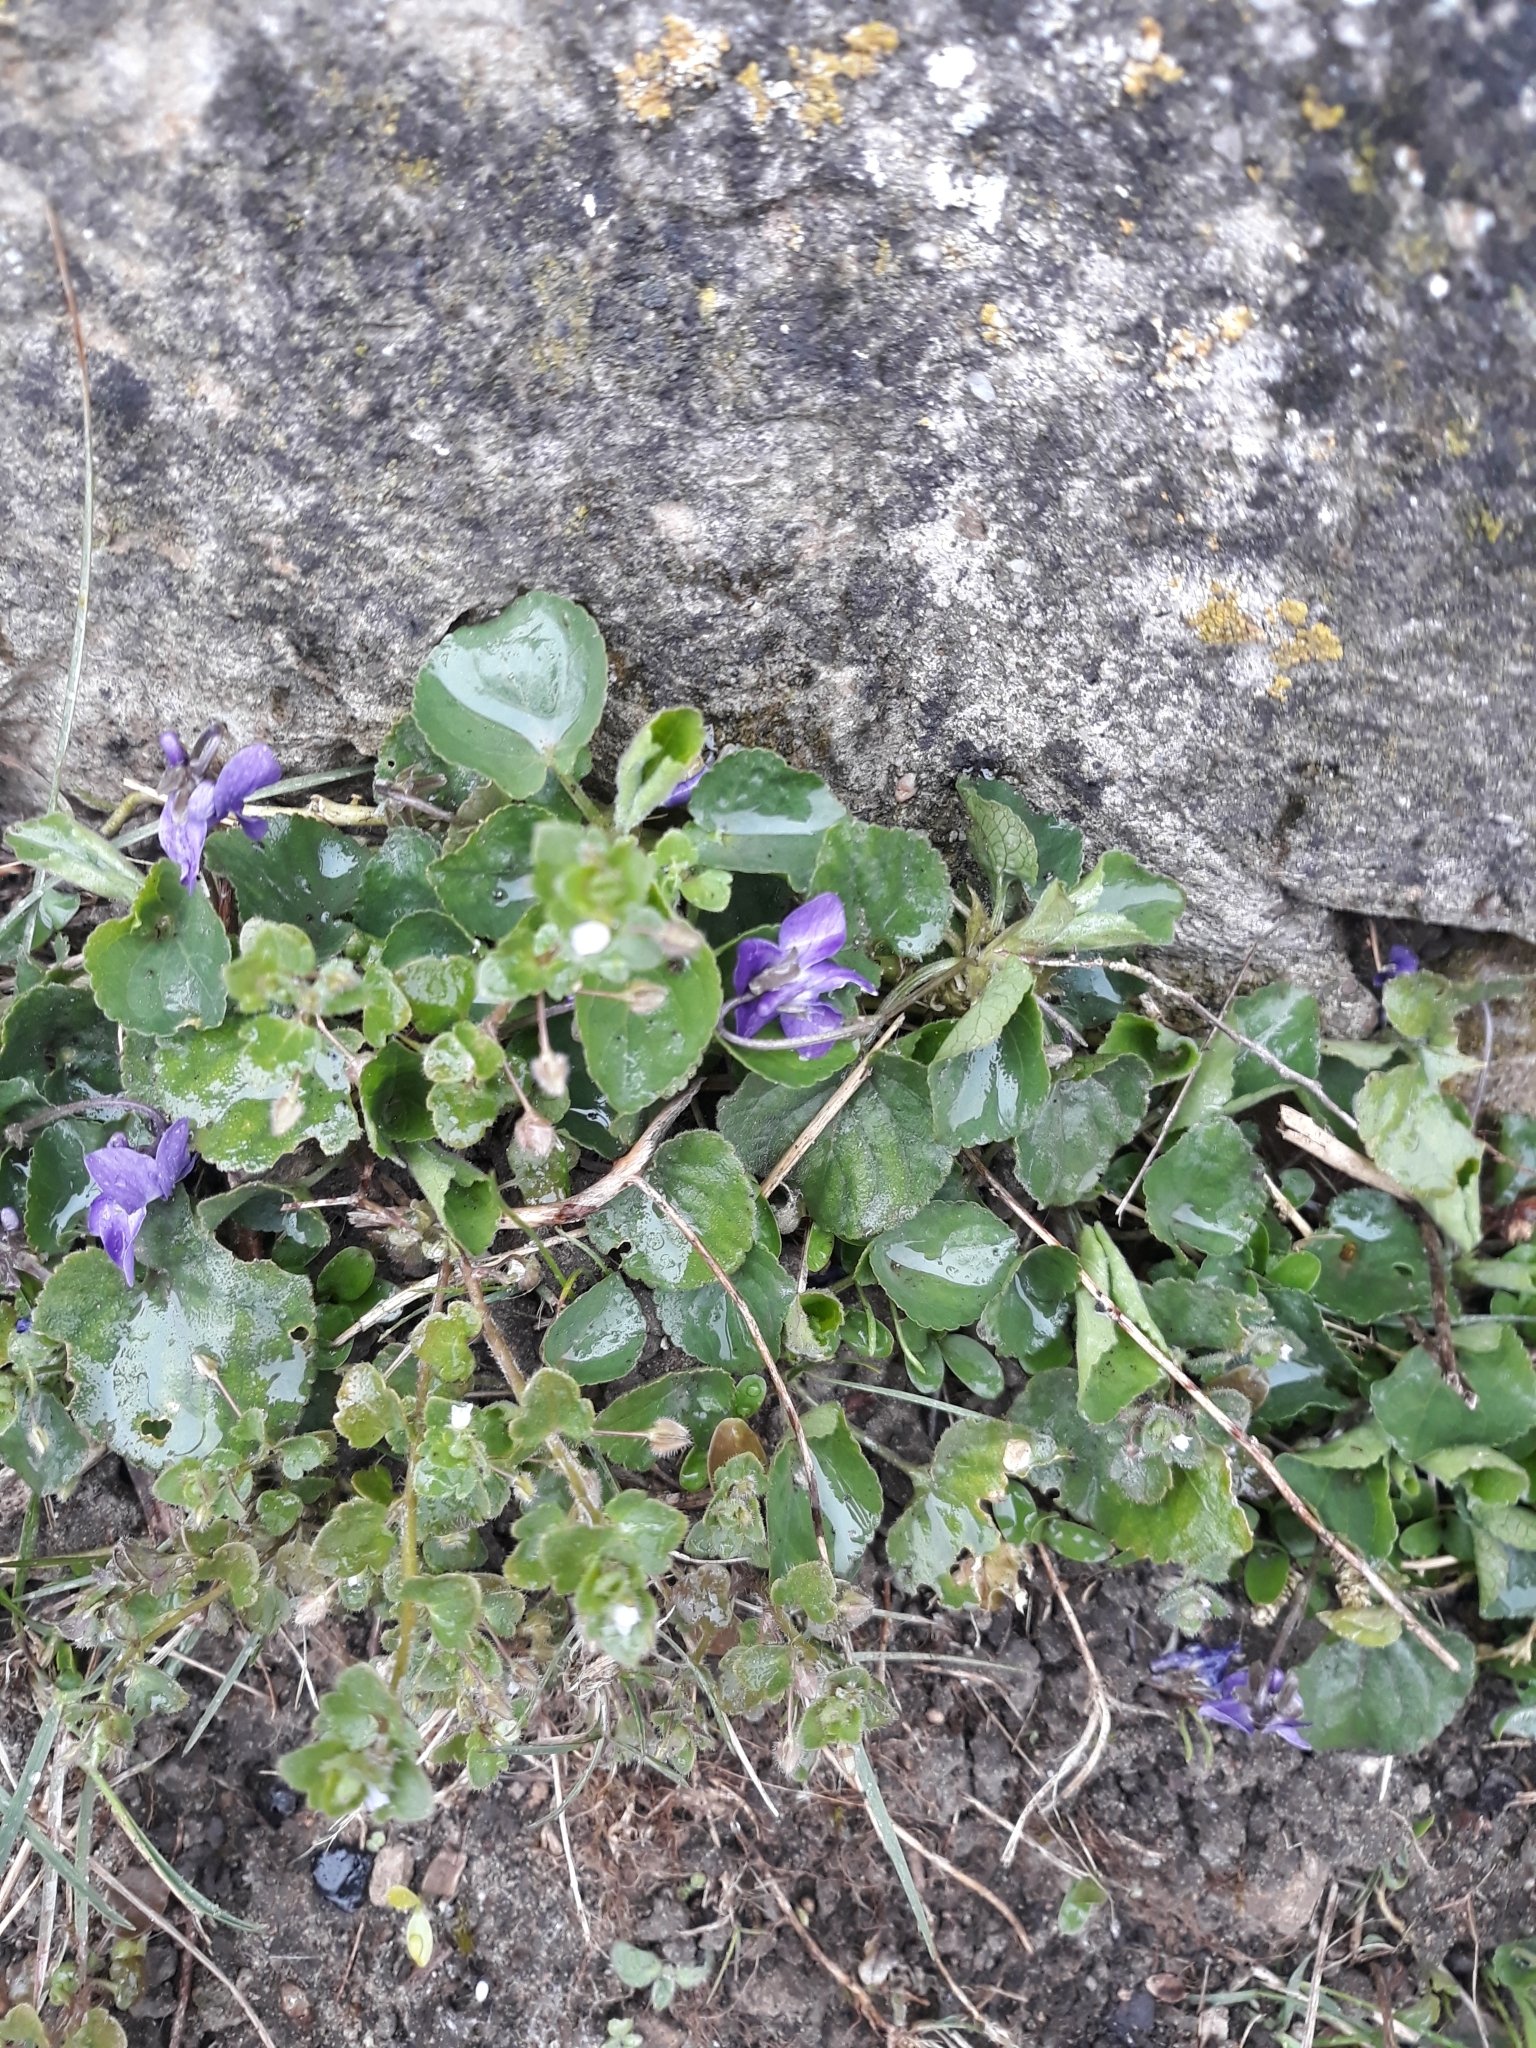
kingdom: Plantae
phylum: Tracheophyta
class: Magnoliopsida
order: Malpighiales
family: Violaceae
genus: Viola
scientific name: Viola odorata
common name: Sweet violet
